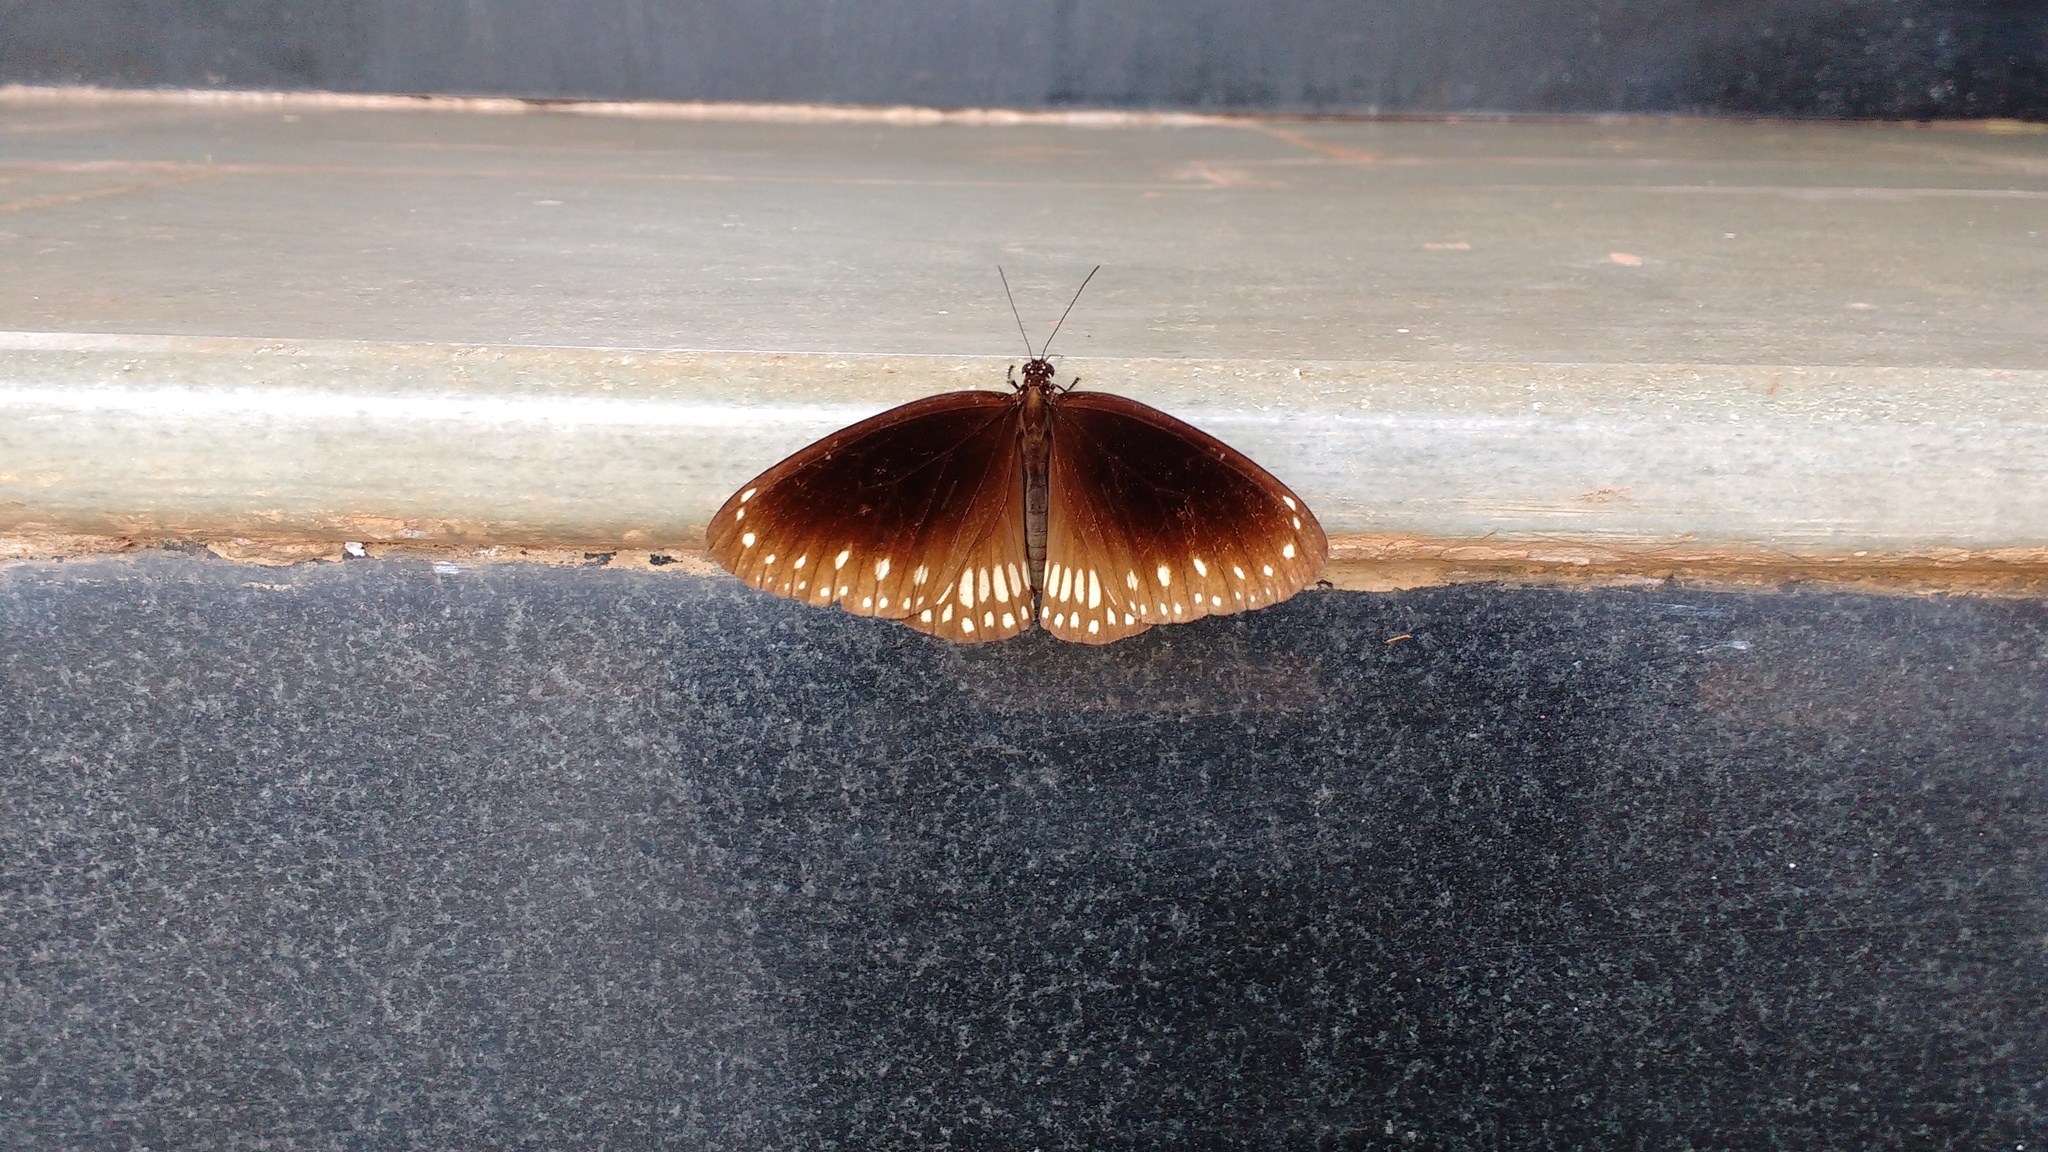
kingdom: Animalia
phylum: Arthropoda
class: Insecta
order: Lepidoptera
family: Nymphalidae
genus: Euploea
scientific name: Euploea core
